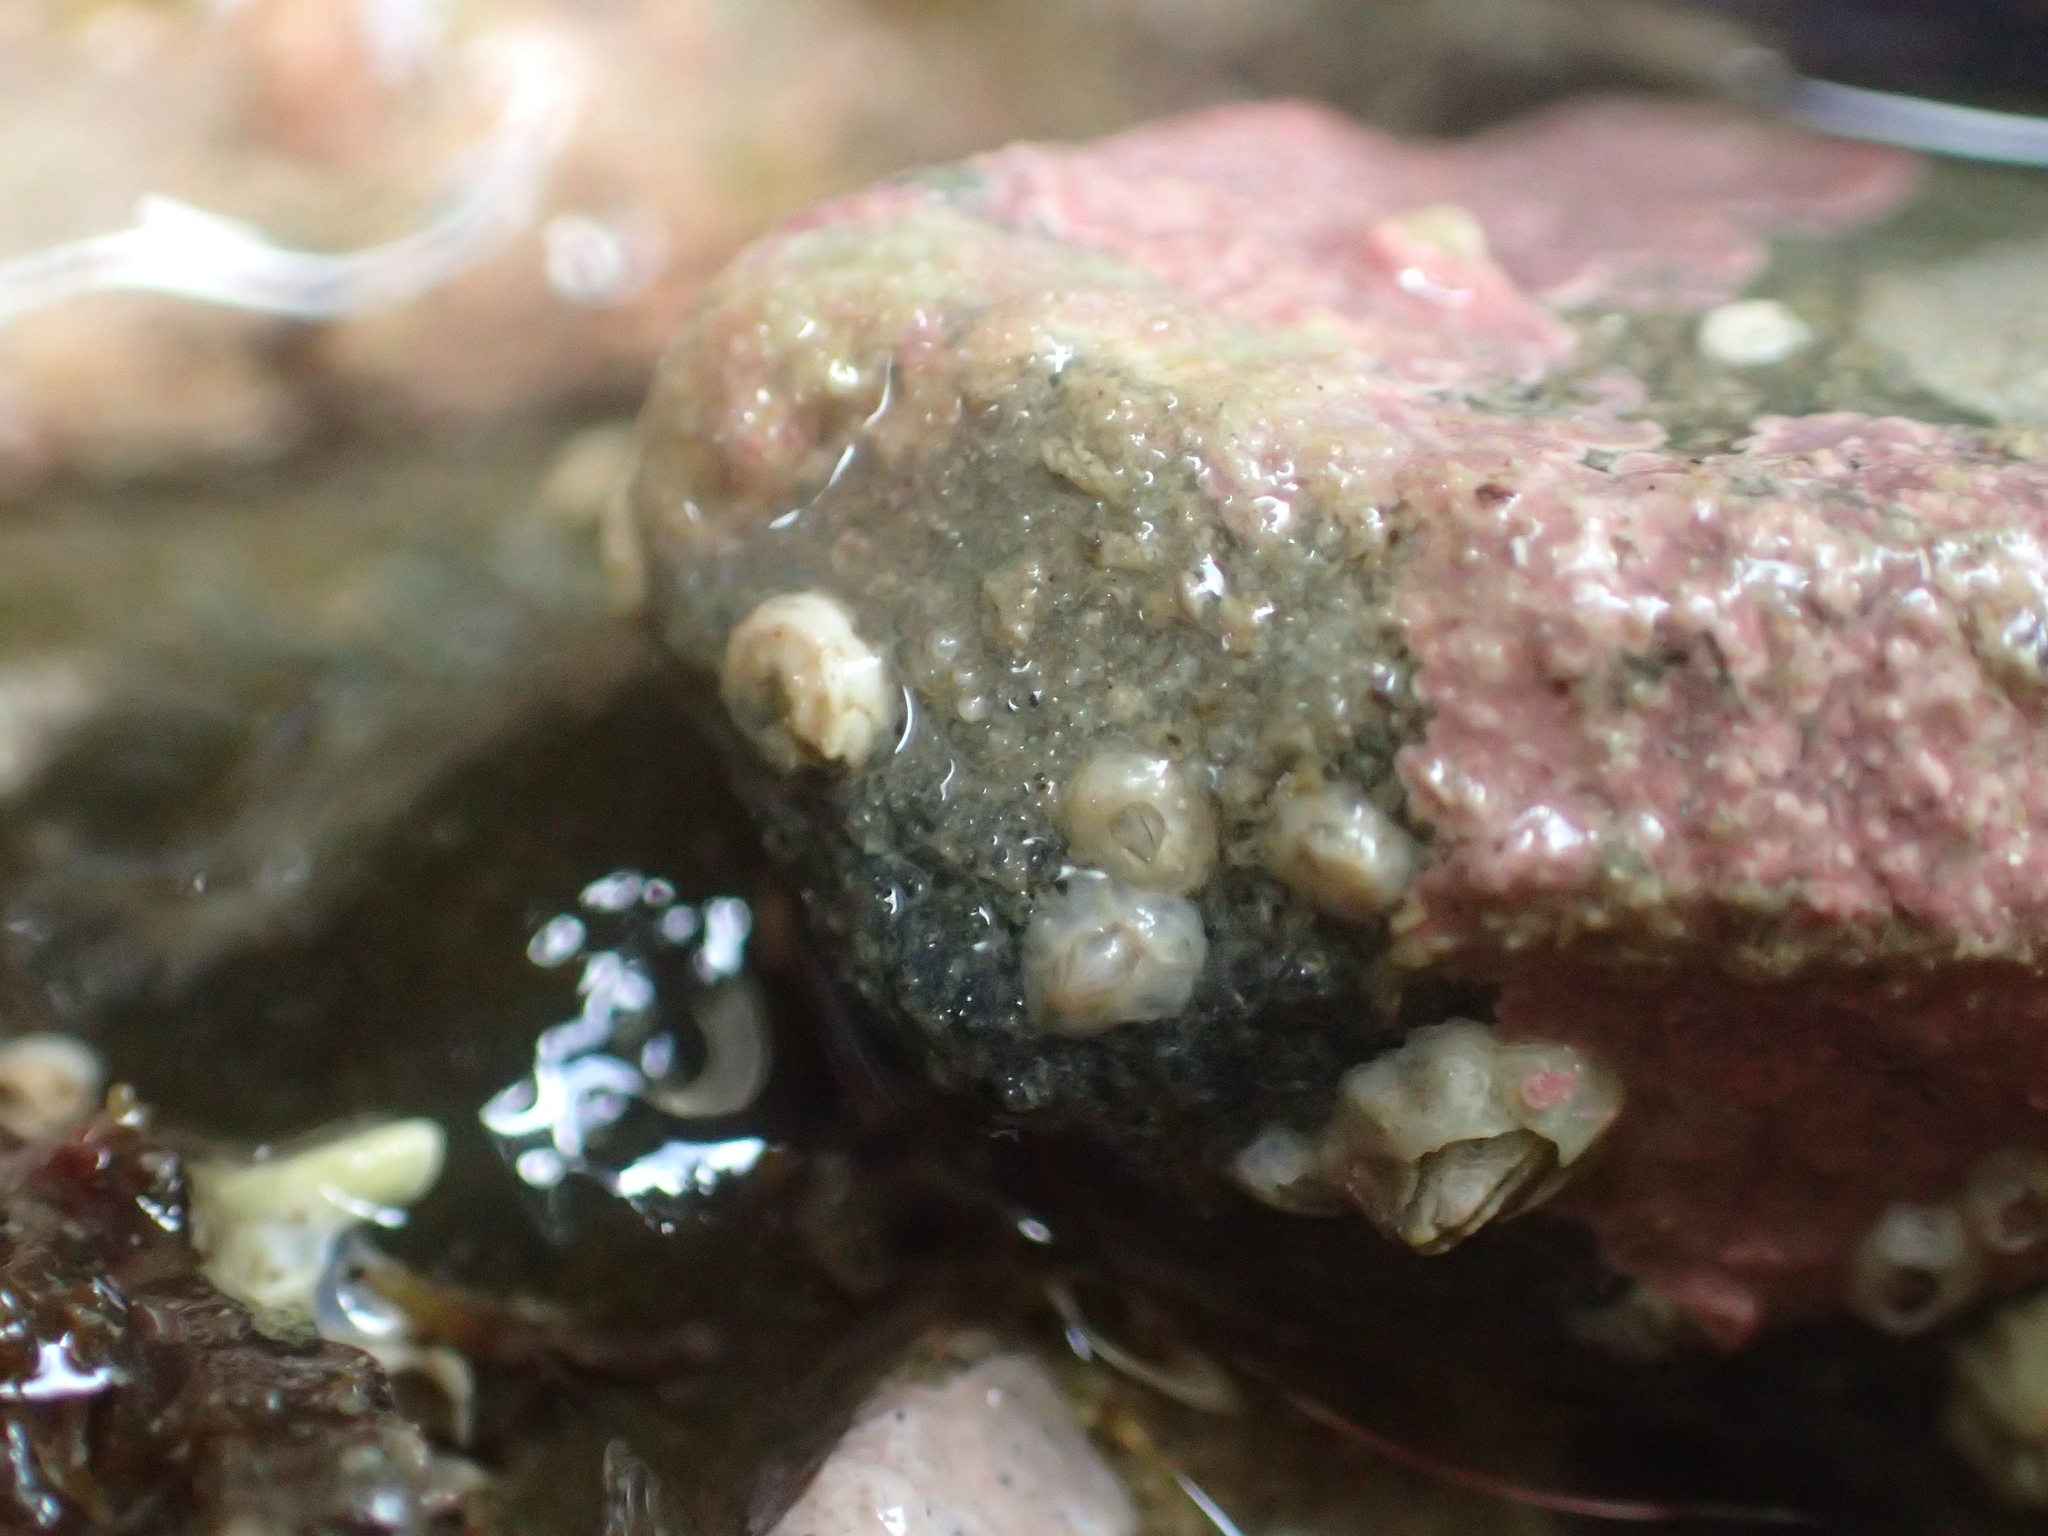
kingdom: Animalia
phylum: Arthropoda
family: Elminiidae
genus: Austrominius
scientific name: Austrominius modestus
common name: Australasian barnacle
